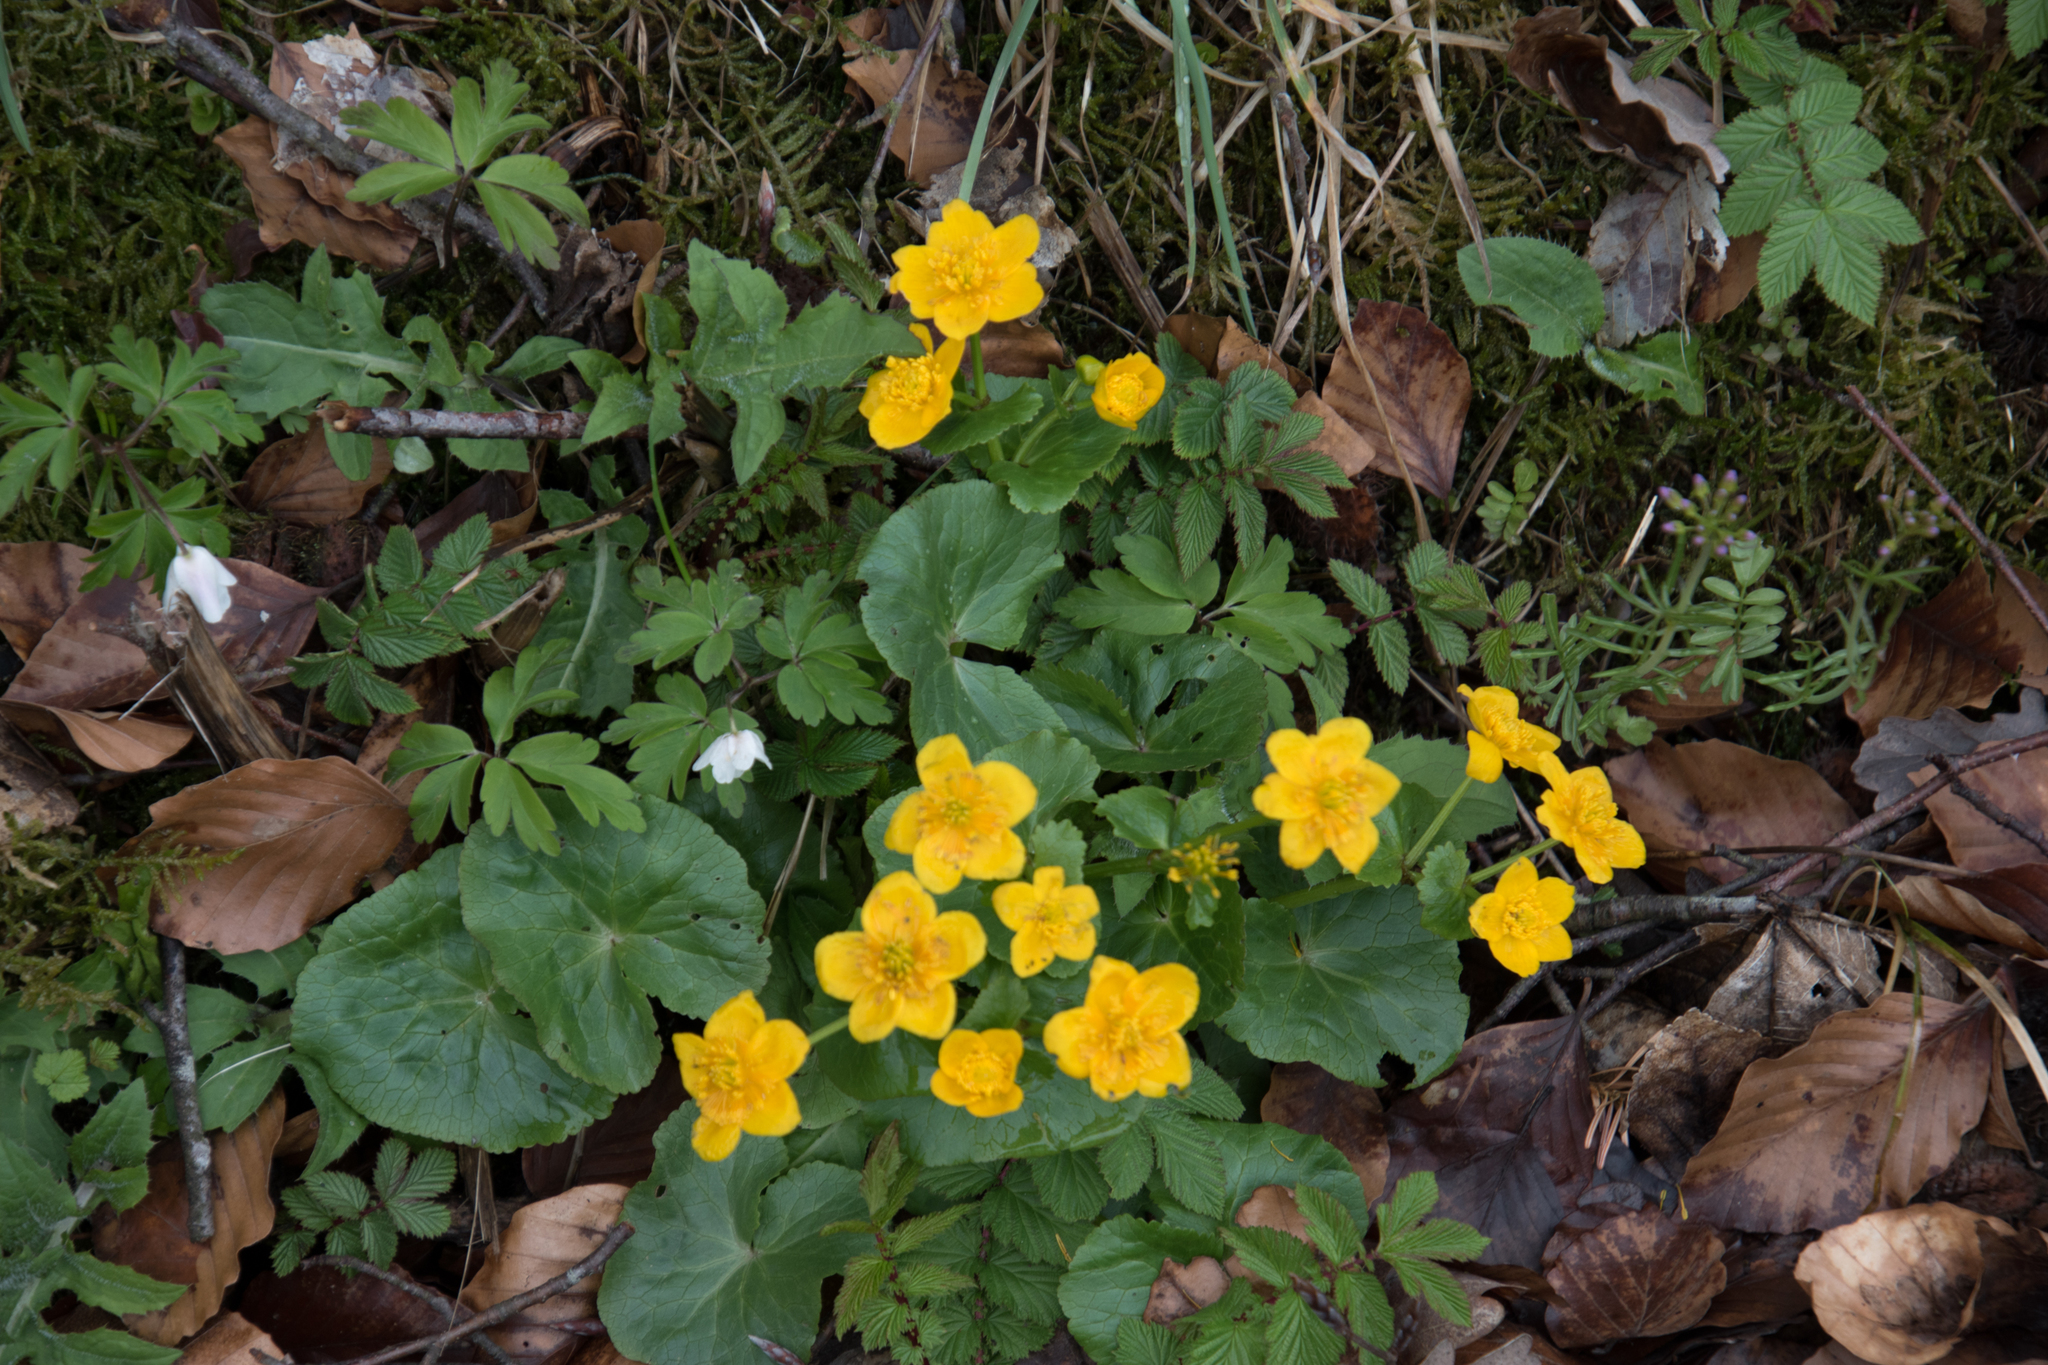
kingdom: Plantae
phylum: Tracheophyta
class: Magnoliopsida
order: Ranunculales
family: Ranunculaceae
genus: Caltha
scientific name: Caltha palustris
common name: Marsh marigold
